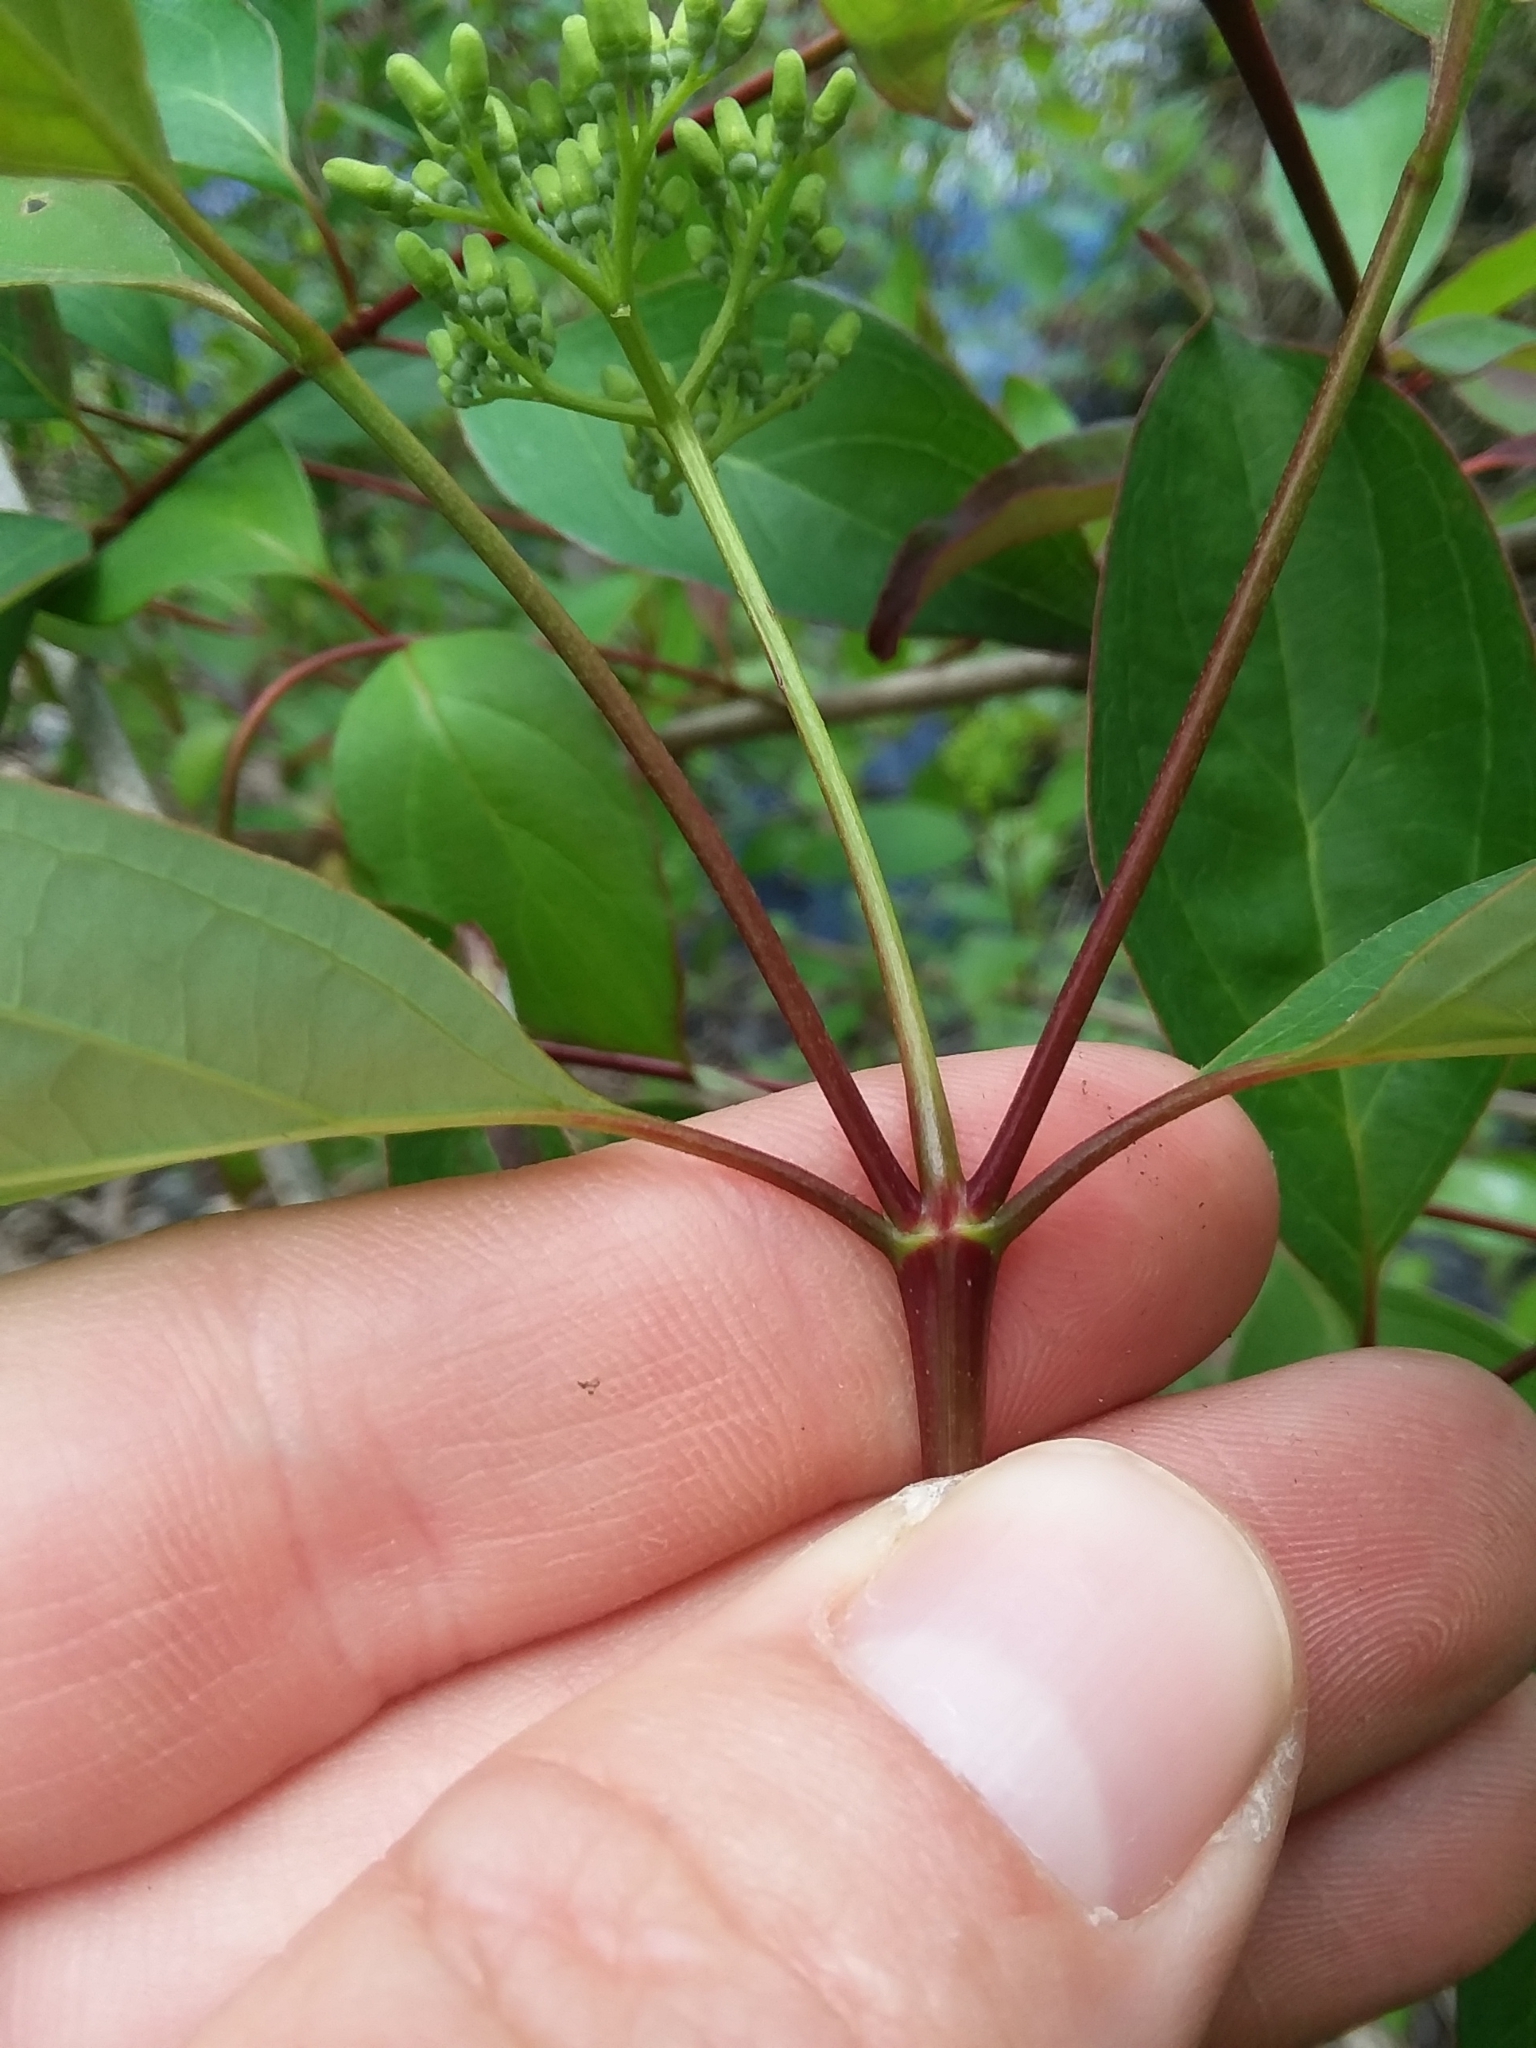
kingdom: Plantae
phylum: Tracheophyta
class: Magnoliopsida
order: Cornales
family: Cornaceae
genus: Cornus
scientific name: Cornus foemina
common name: Swamp dogwood
